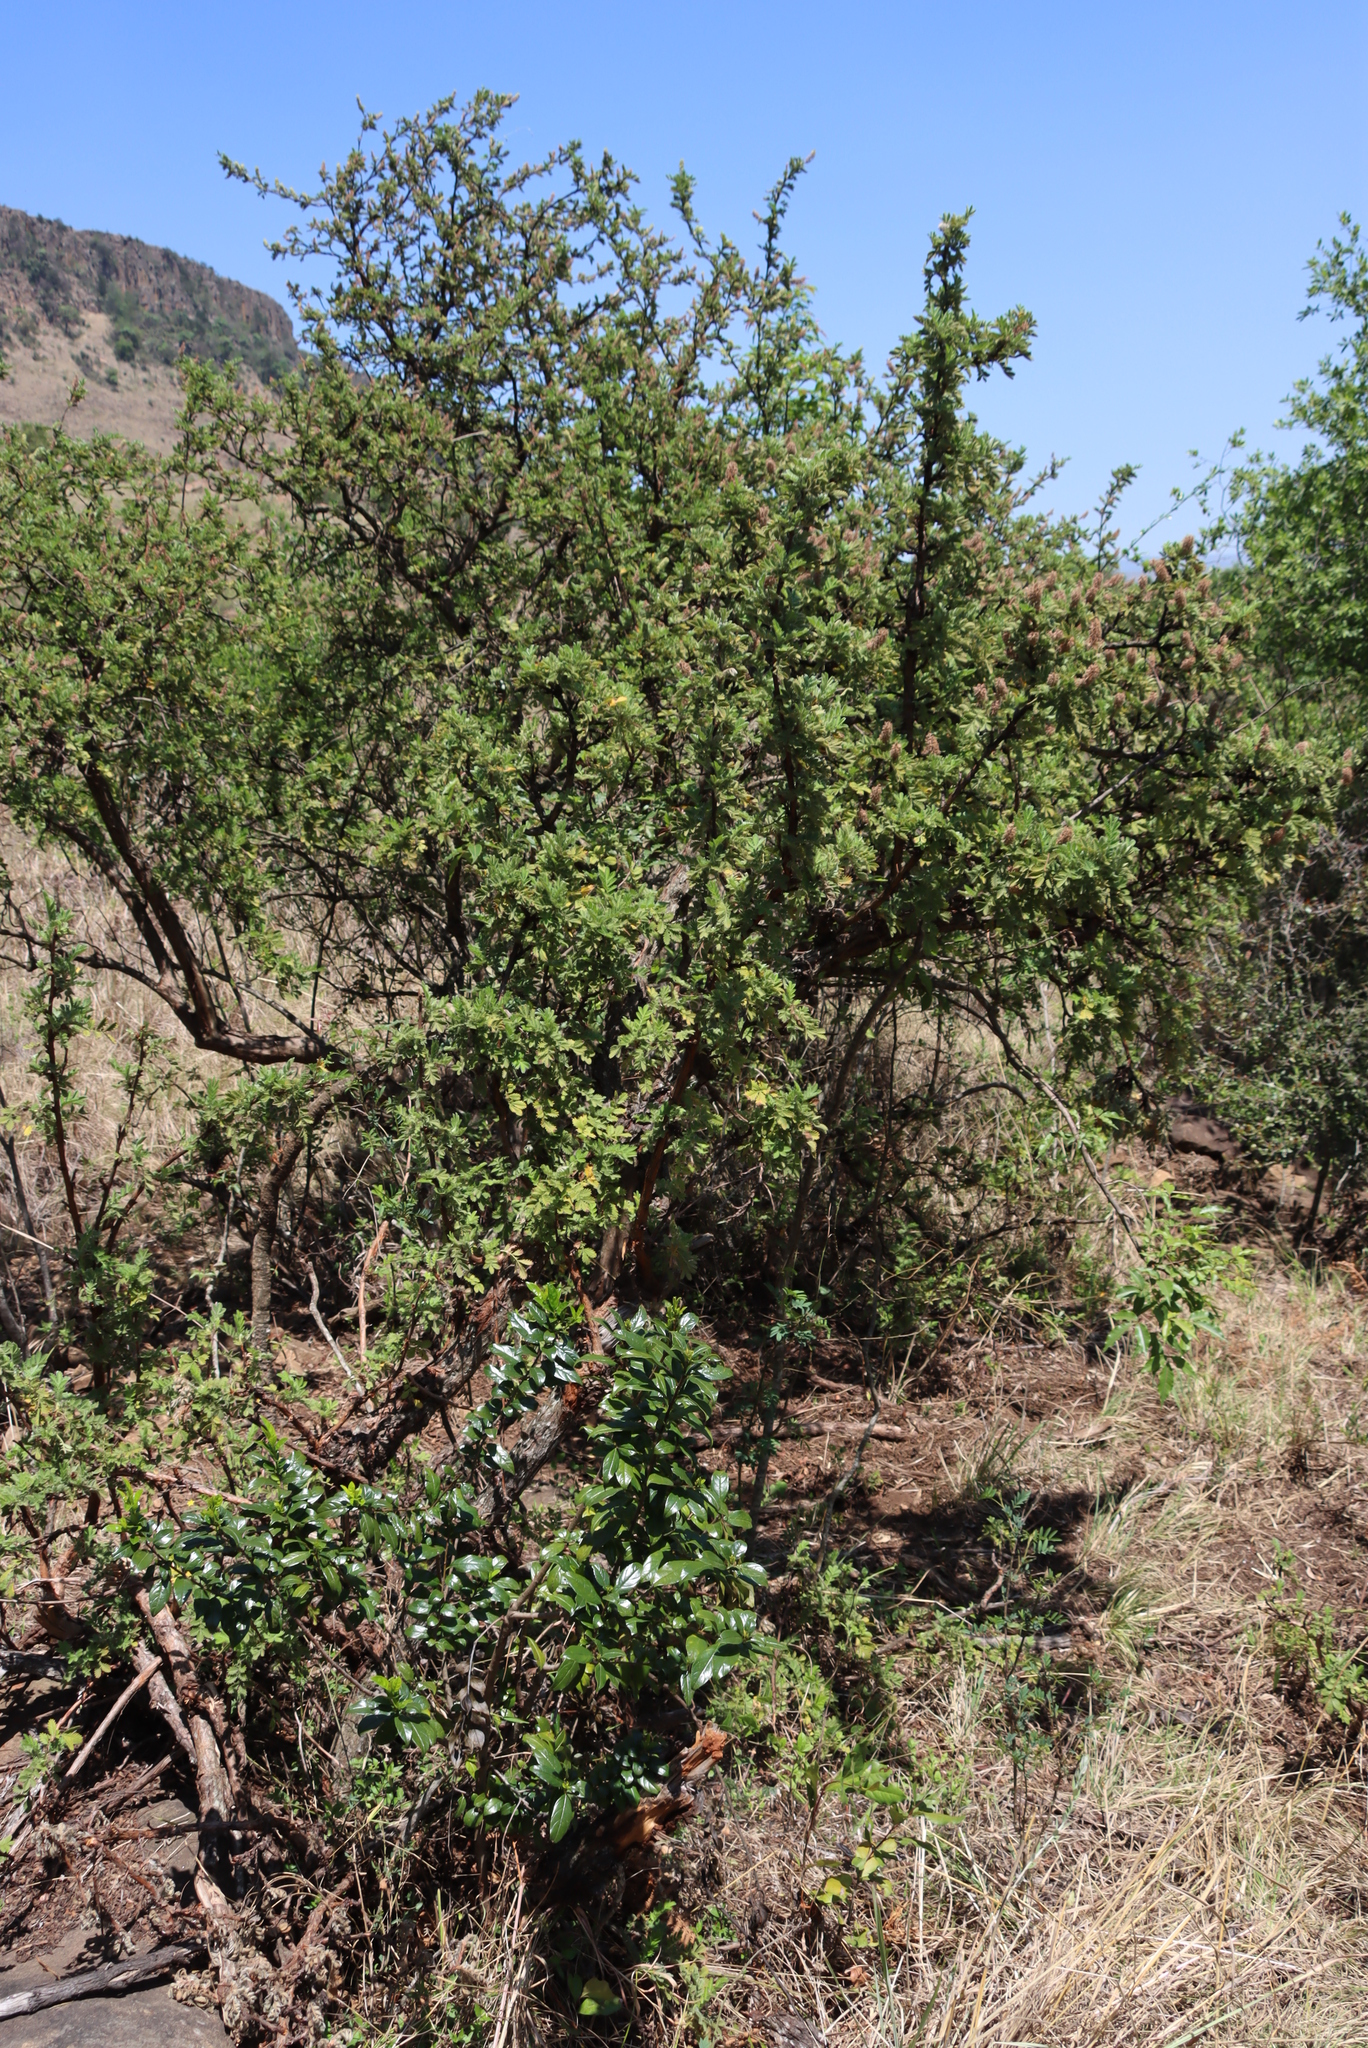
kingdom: Plantae
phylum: Tracheophyta
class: Magnoliopsida
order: Rosales
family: Rosaceae
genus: Leucosidea
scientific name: Leucosidea sericea
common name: Oldwood
